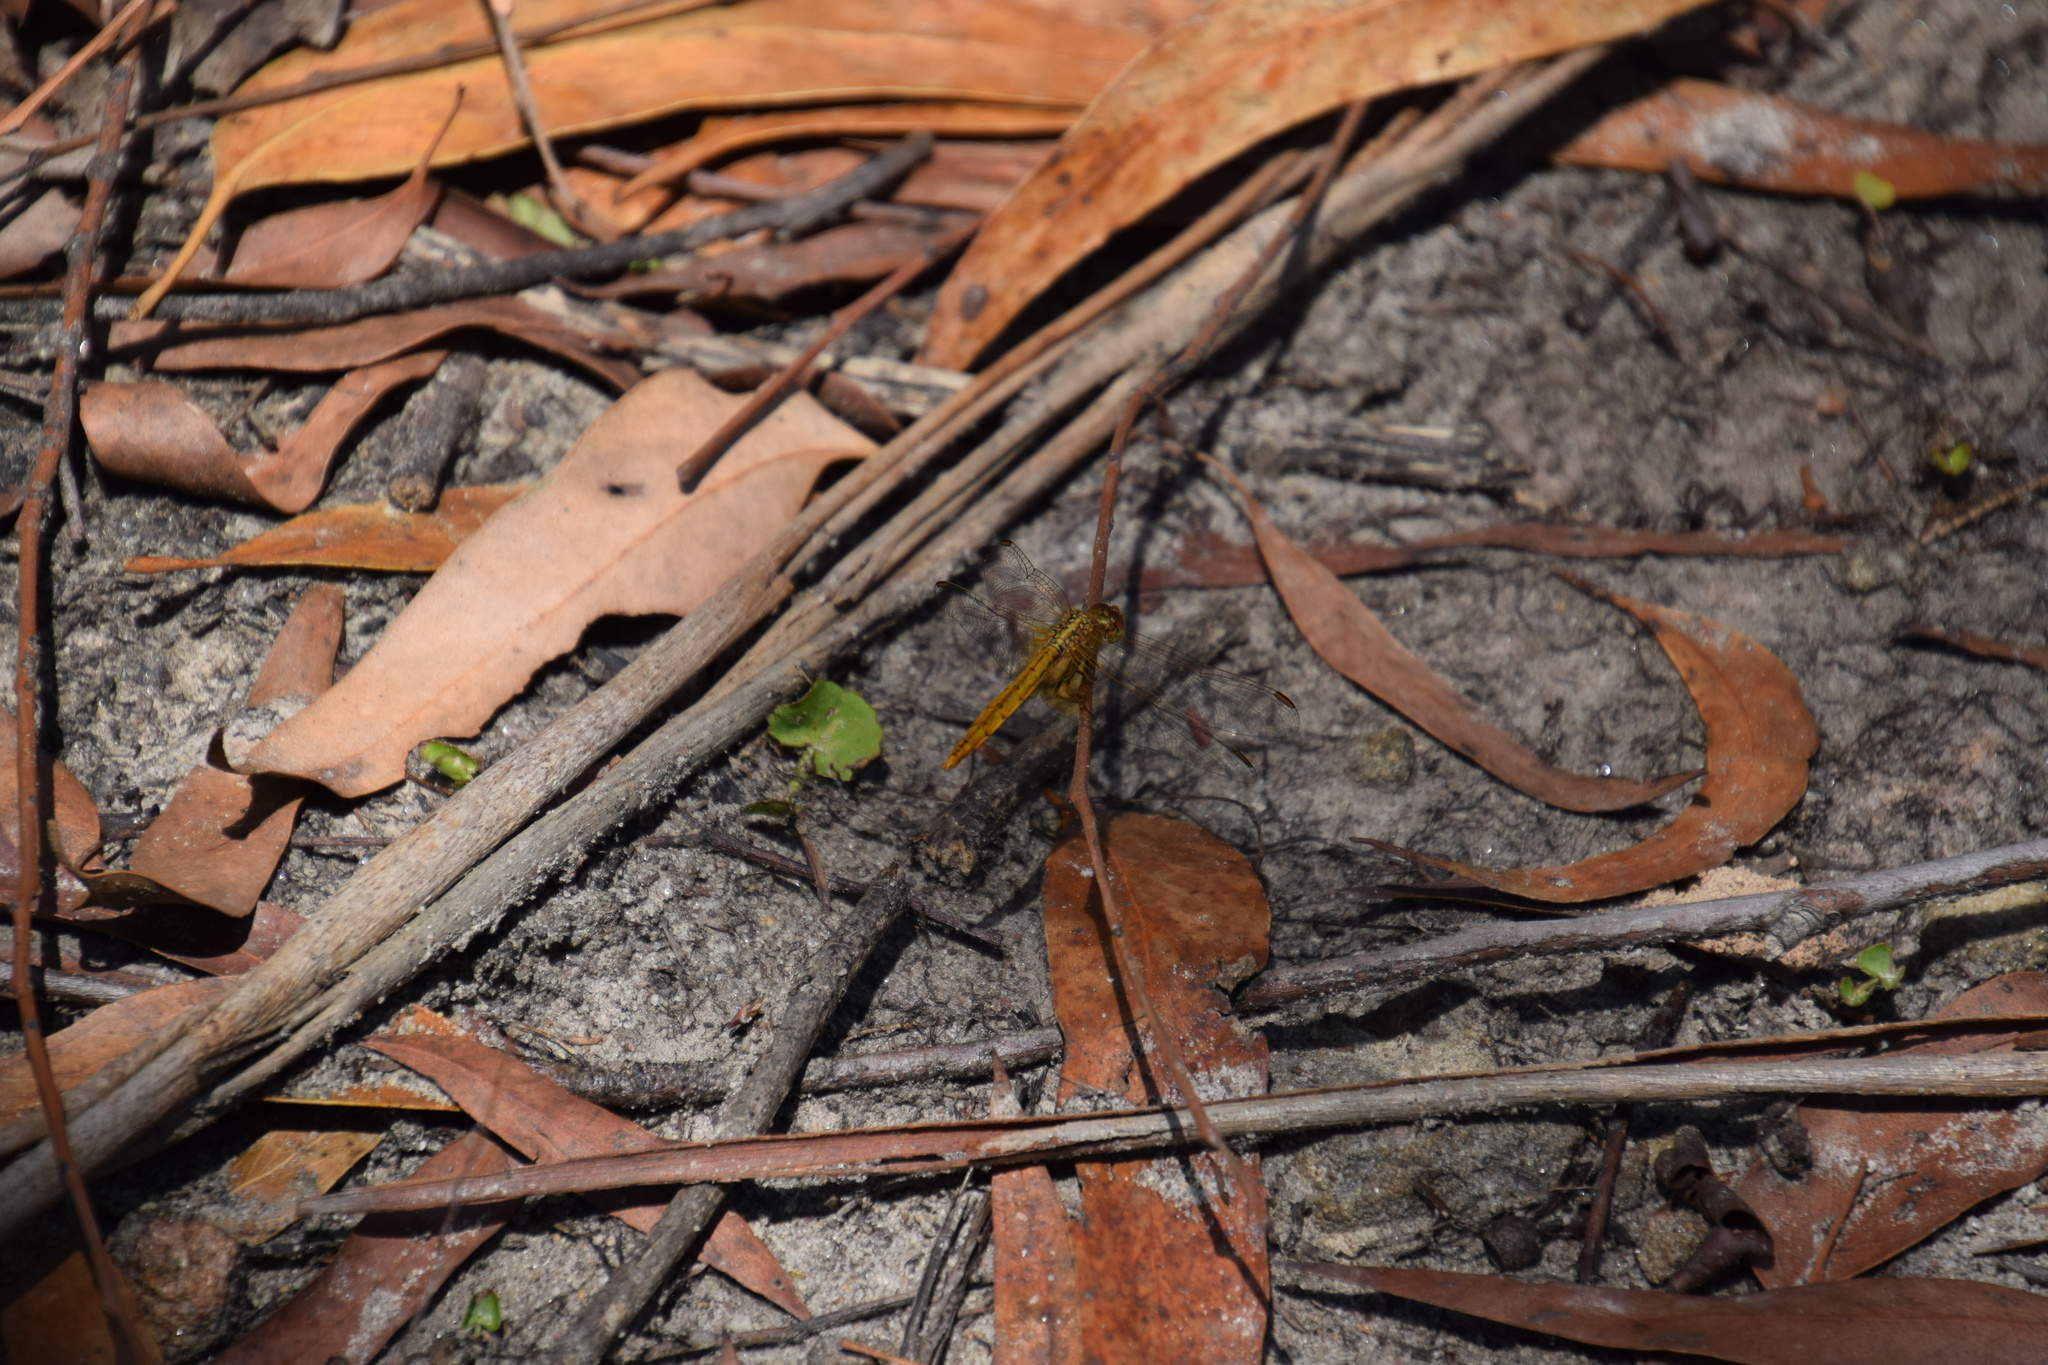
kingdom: Animalia
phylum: Arthropoda
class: Insecta
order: Odonata
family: Libellulidae
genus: Diplacodes
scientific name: Diplacodes haematodes
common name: Scarlet percher
